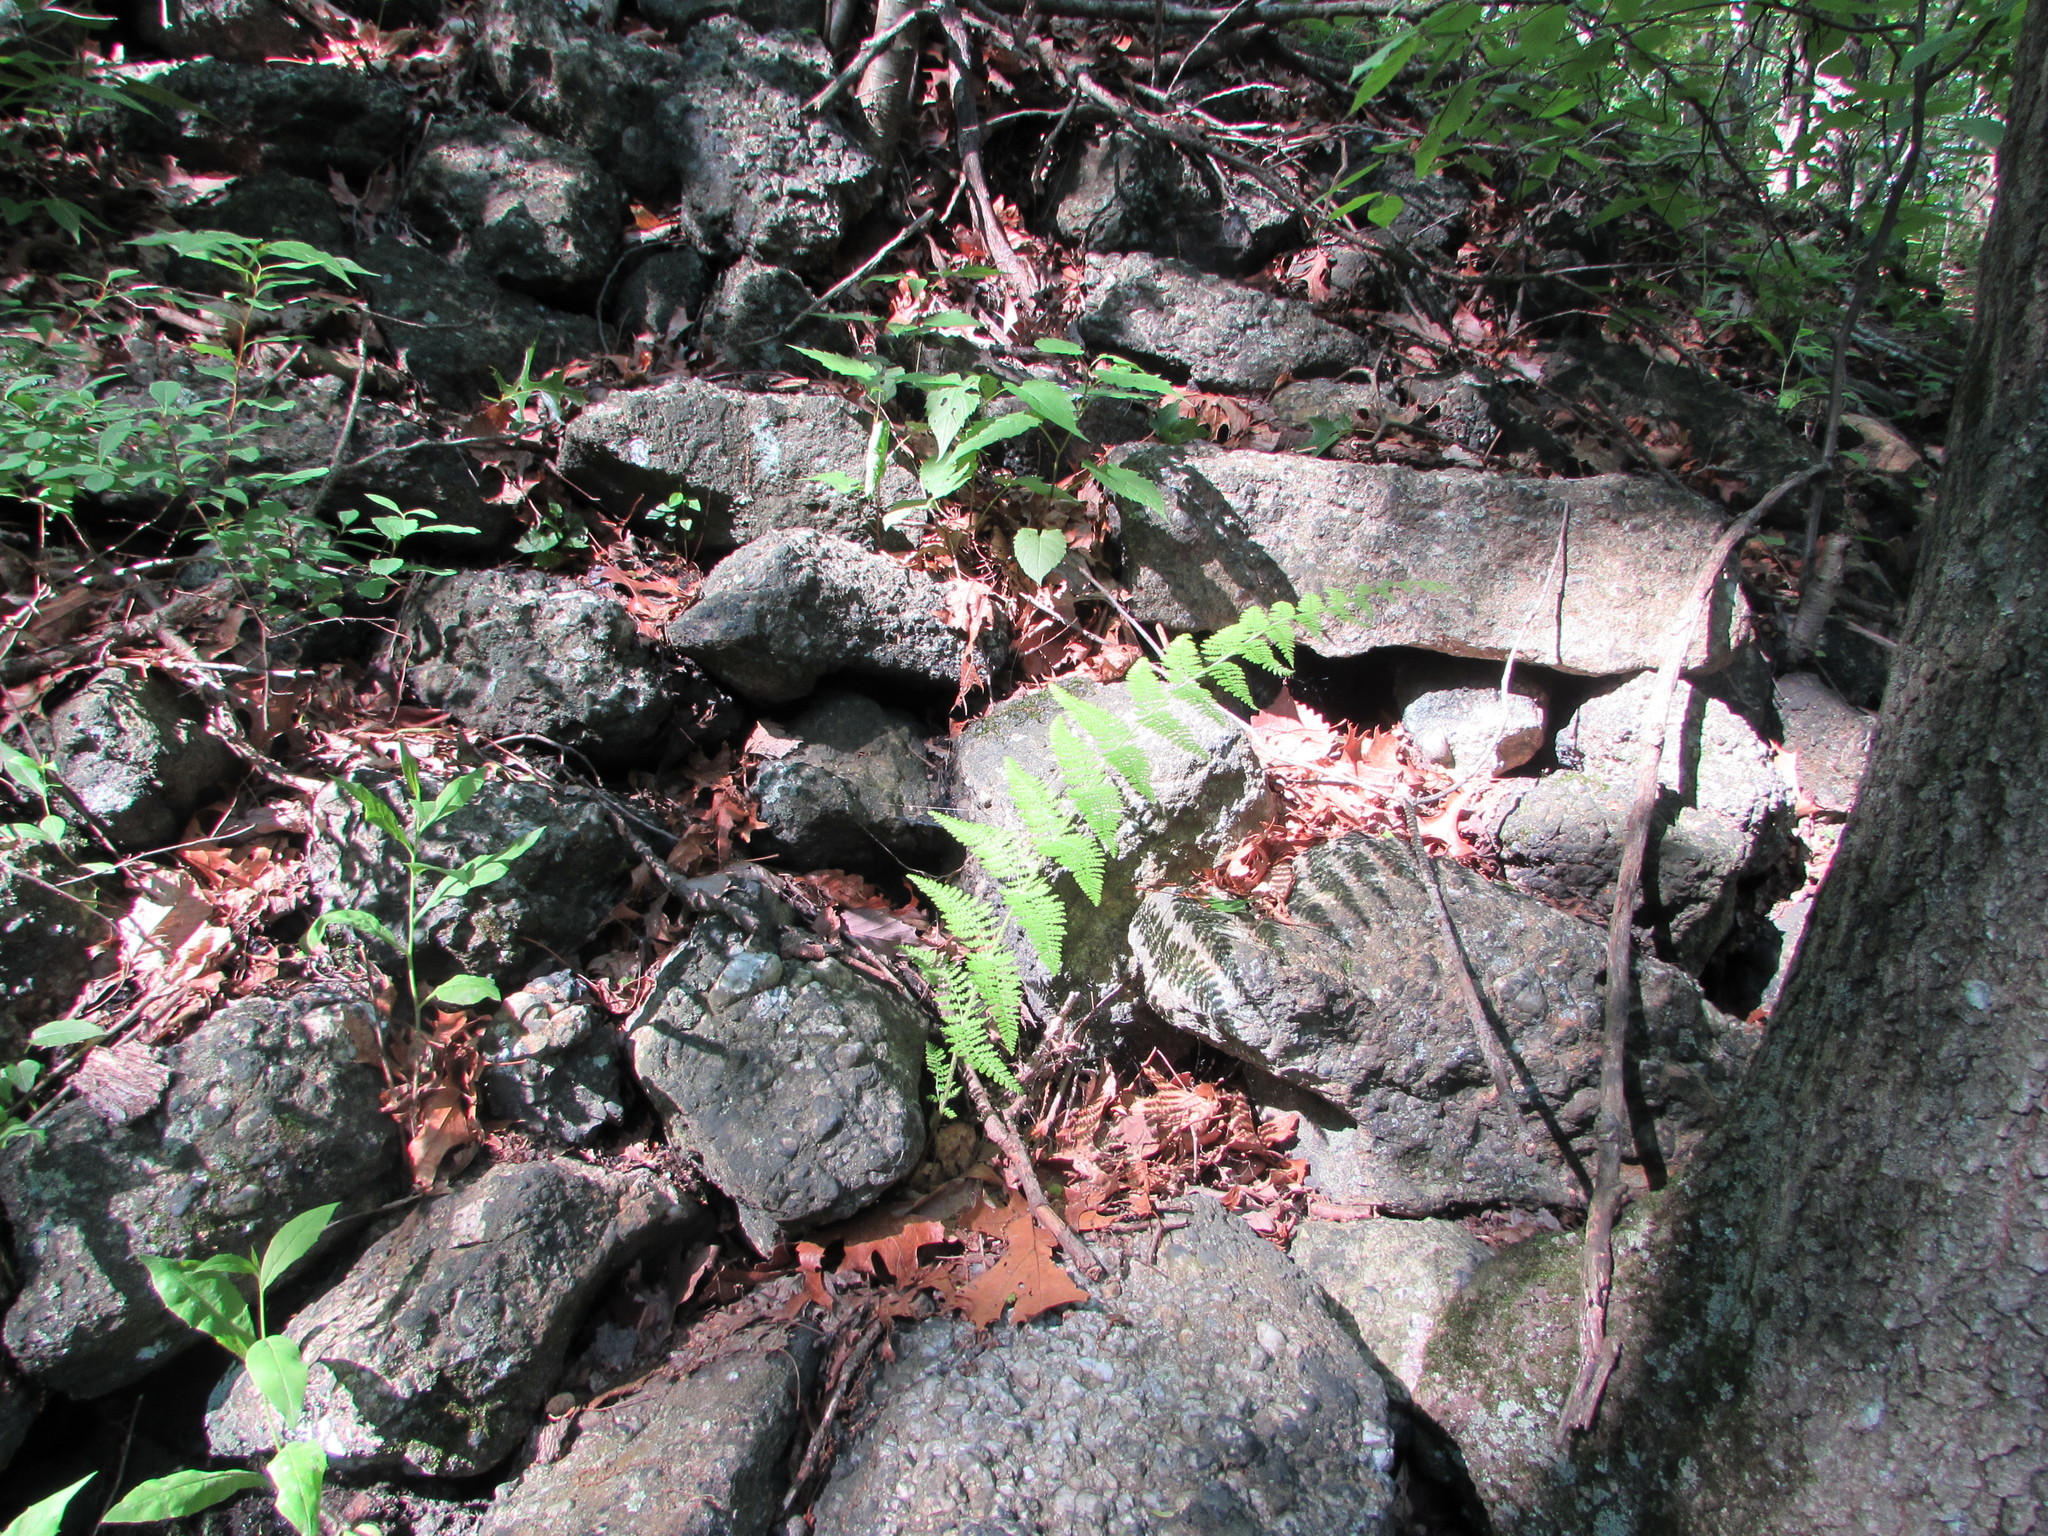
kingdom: Plantae
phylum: Tracheophyta
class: Polypodiopsida
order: Polypodiales
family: Dennstaedtiaceae
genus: Sitobolium
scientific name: Sitobolium punctilobum
